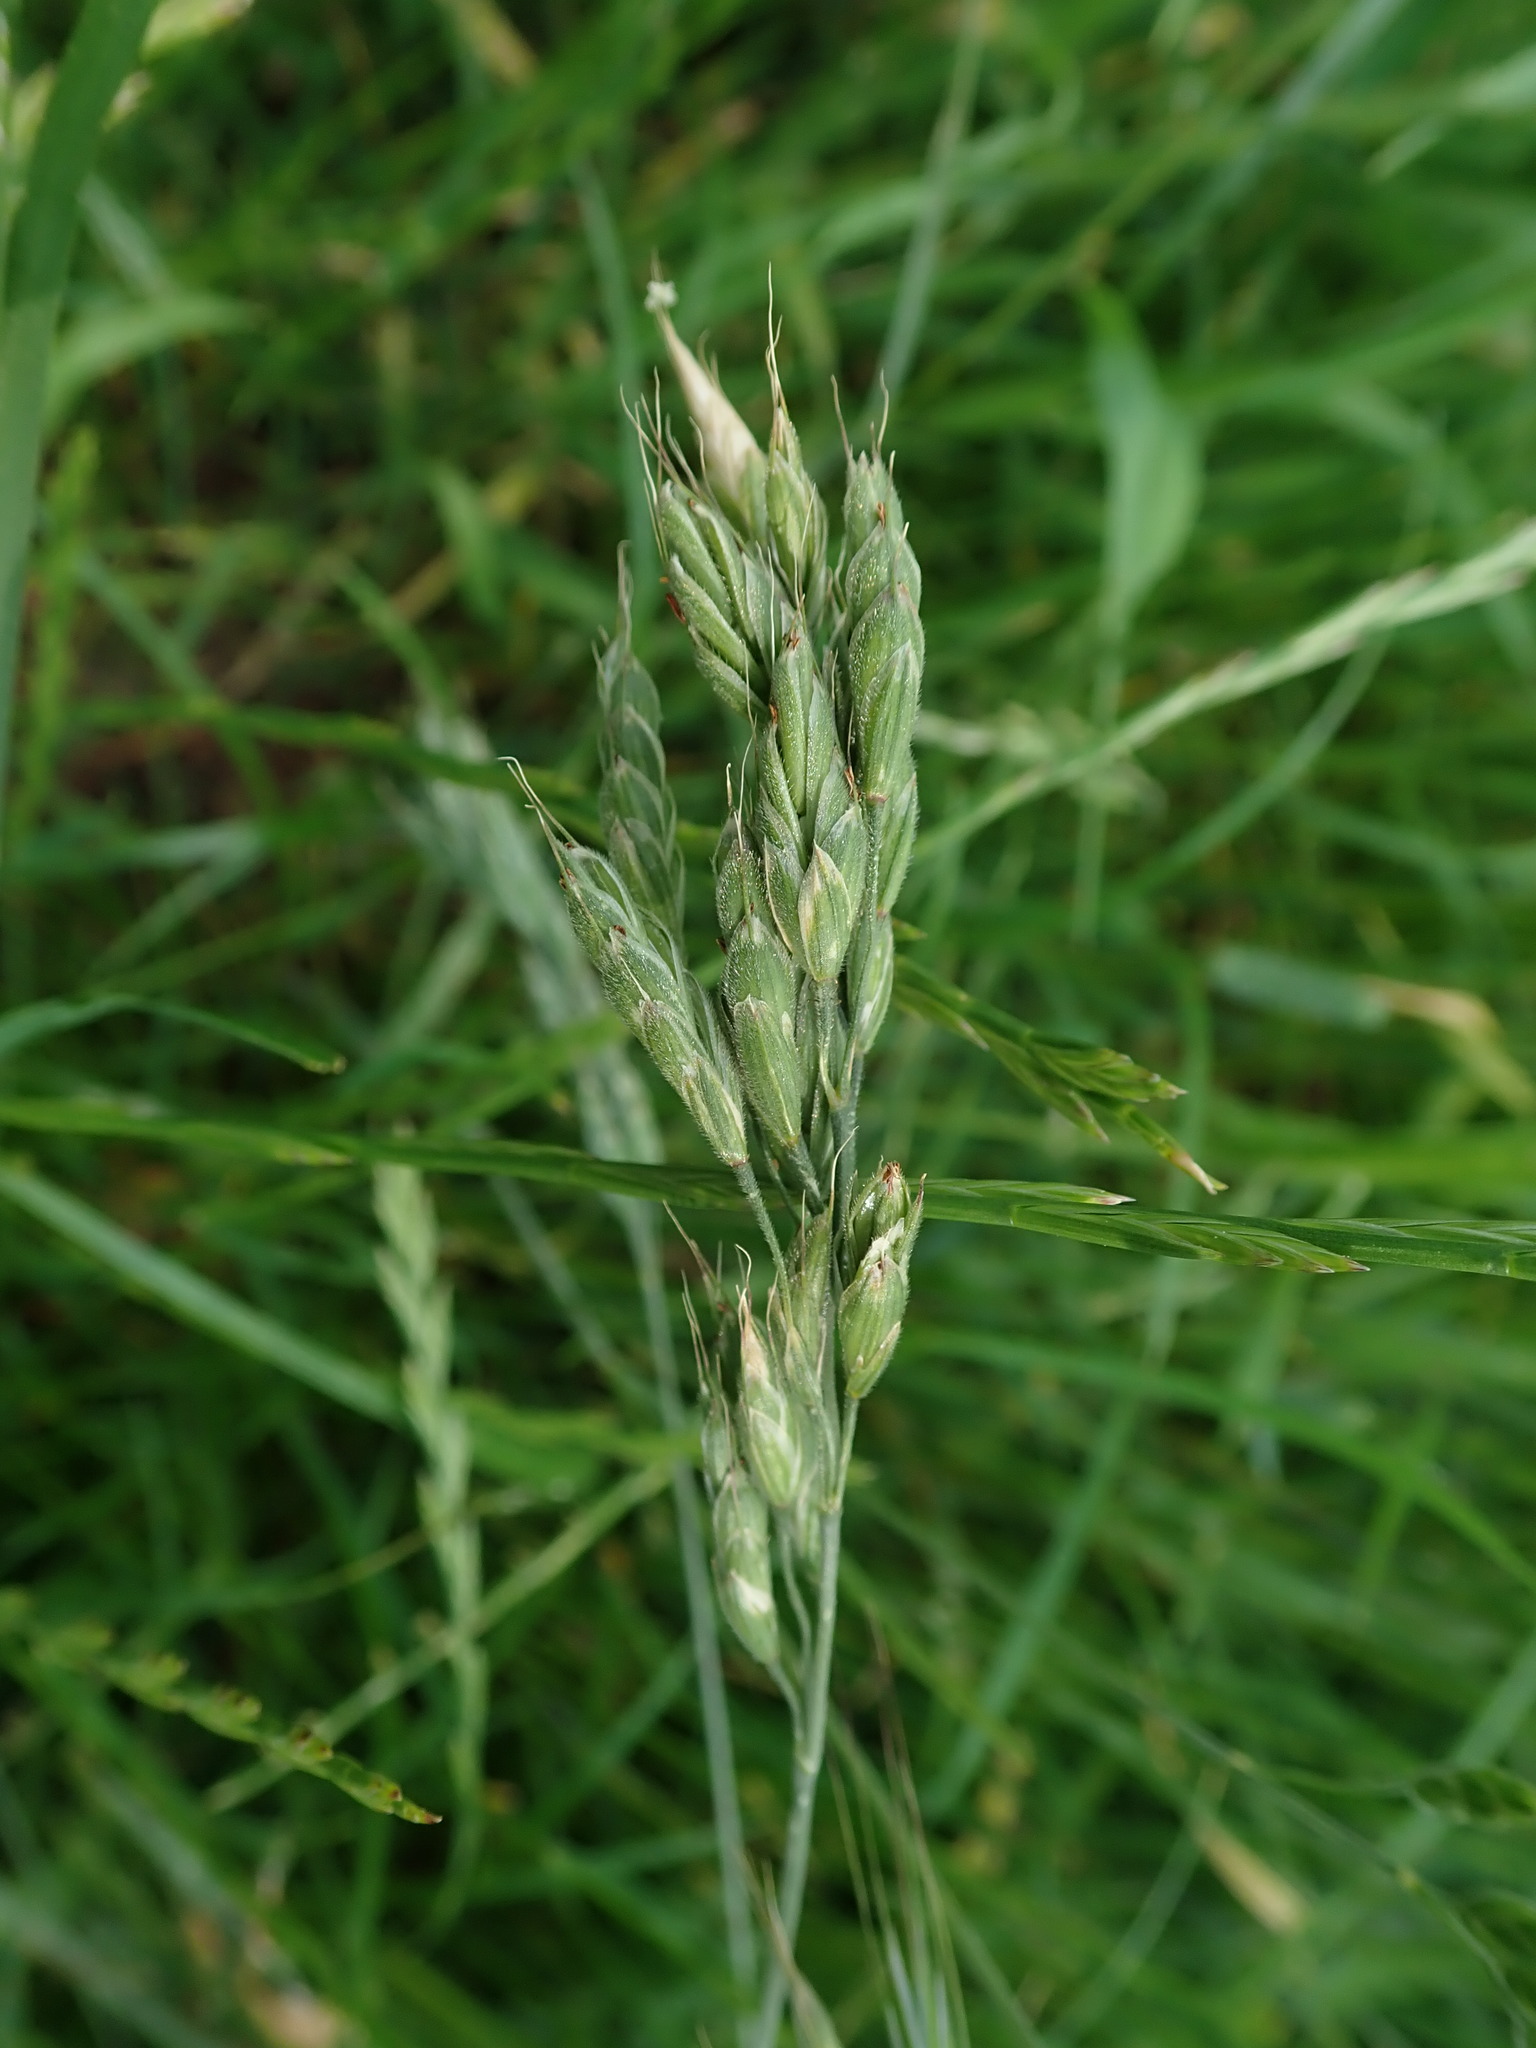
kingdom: Plantae
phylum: Tracheophyta
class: Liliopsida
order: Poales
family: Poaceae
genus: Bromus
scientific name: Bromus hordeaceus
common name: Soft brome
